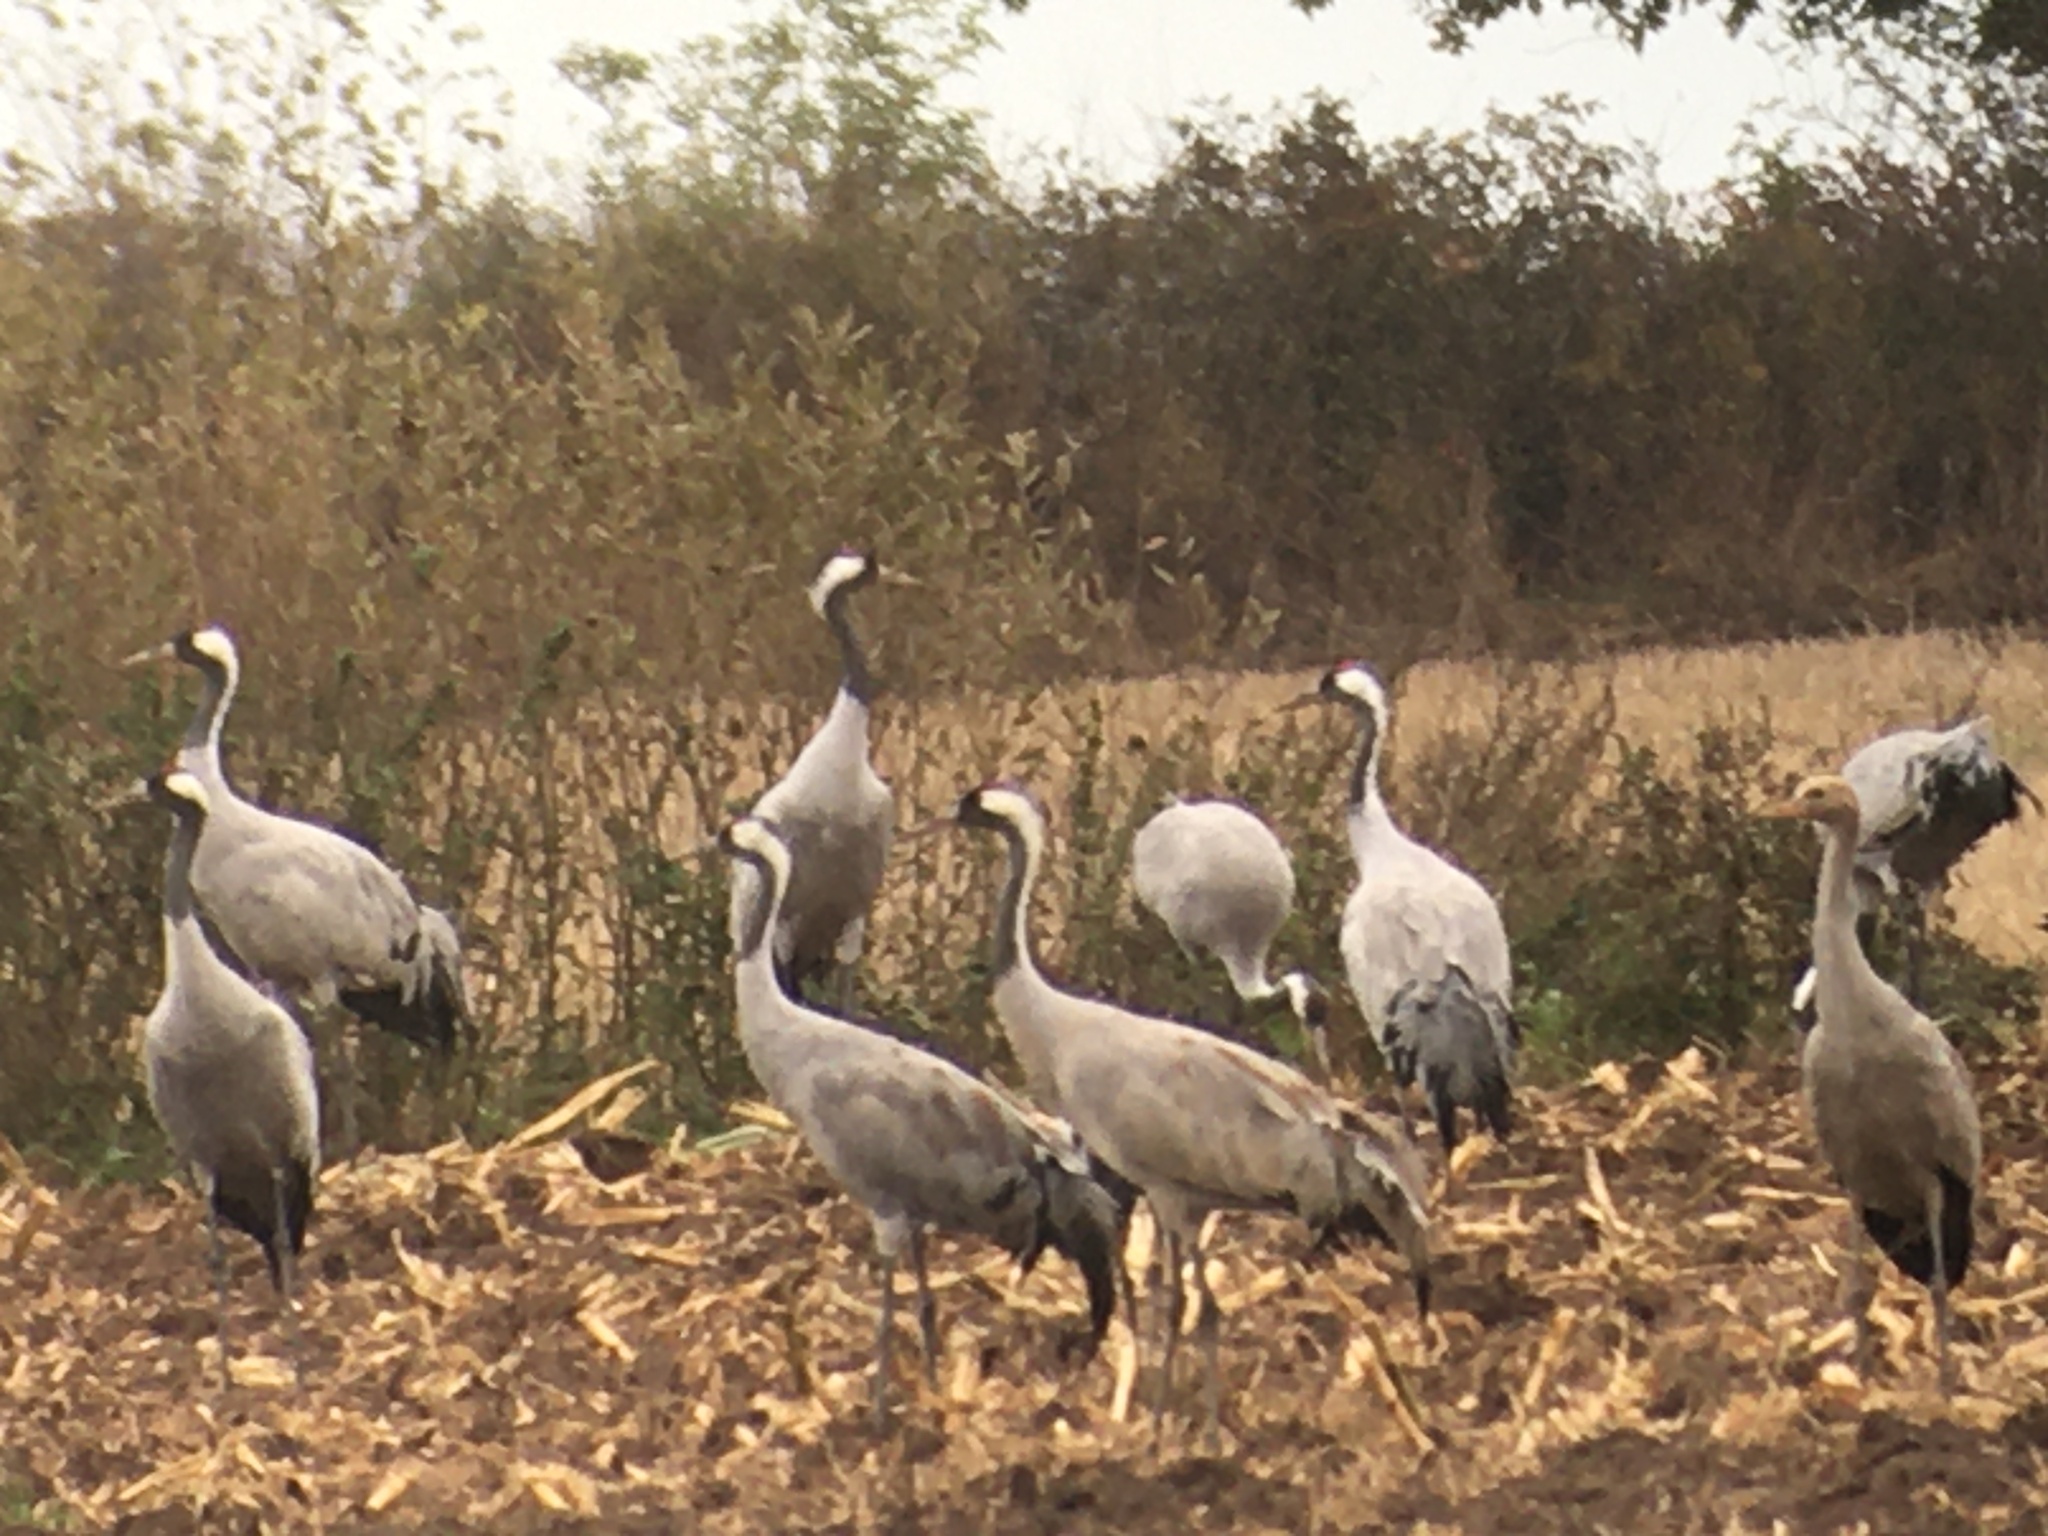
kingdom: Animalia
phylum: Chordata
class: Aves
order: Gruiformes
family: Gruidae
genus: Grus
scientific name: Grus grus
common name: Common crane
